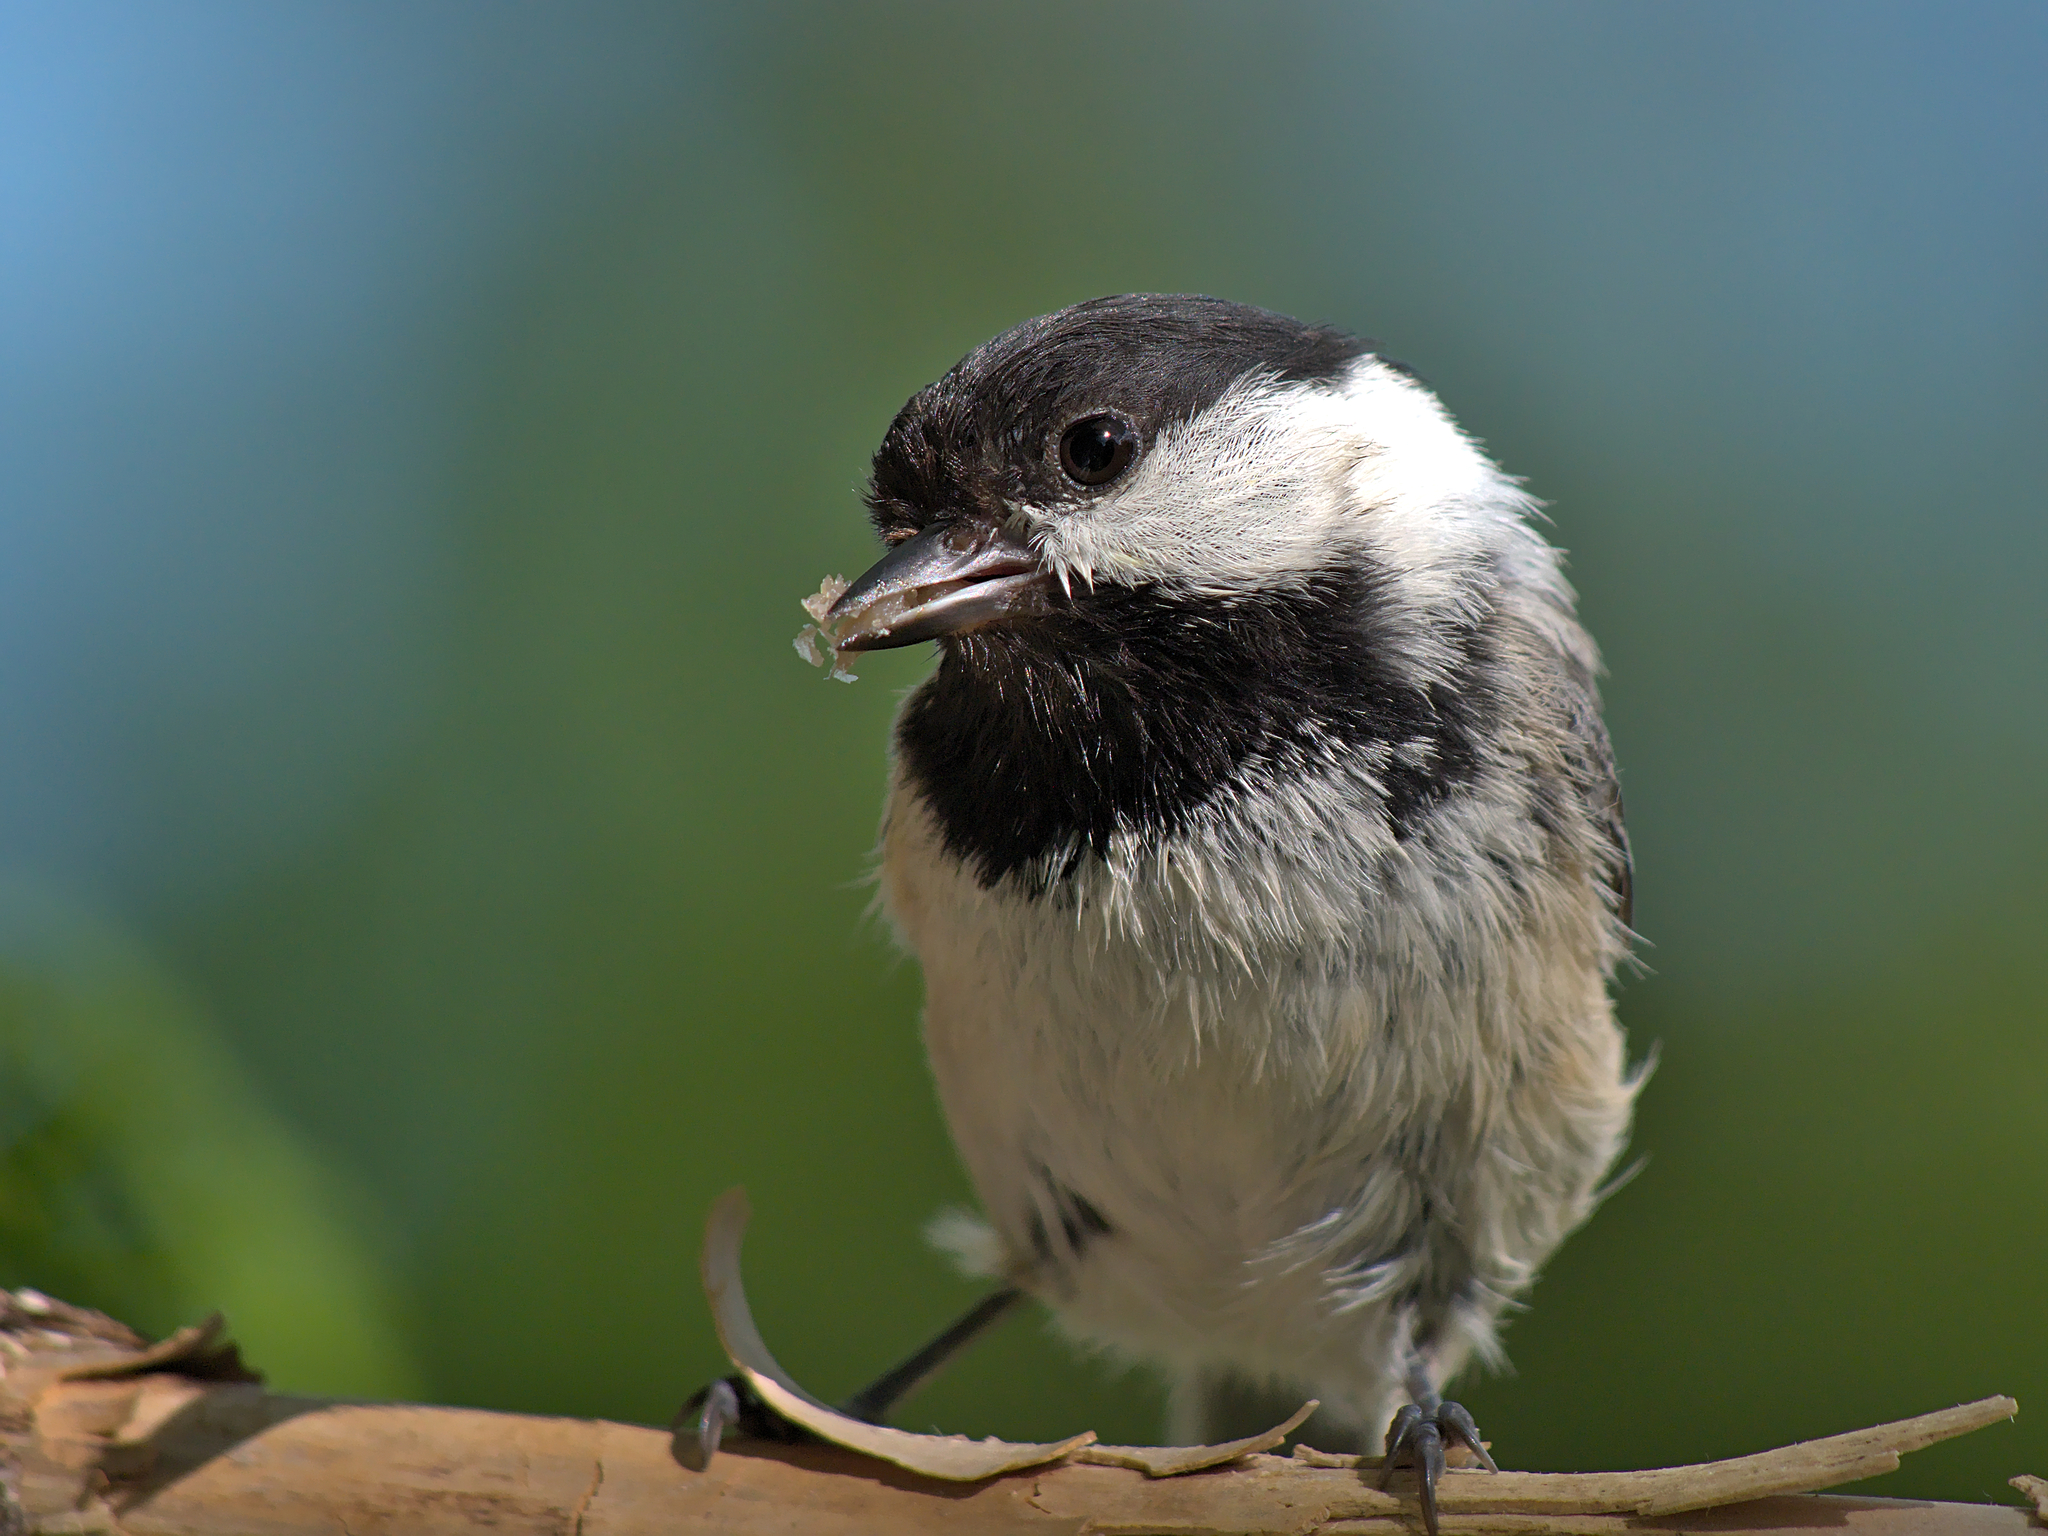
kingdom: Animalia
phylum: Chordata
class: Aves
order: Passeriformes
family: Paridae
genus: Poecile
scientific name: Poecile atricapillus
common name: Black-capped chickadee
